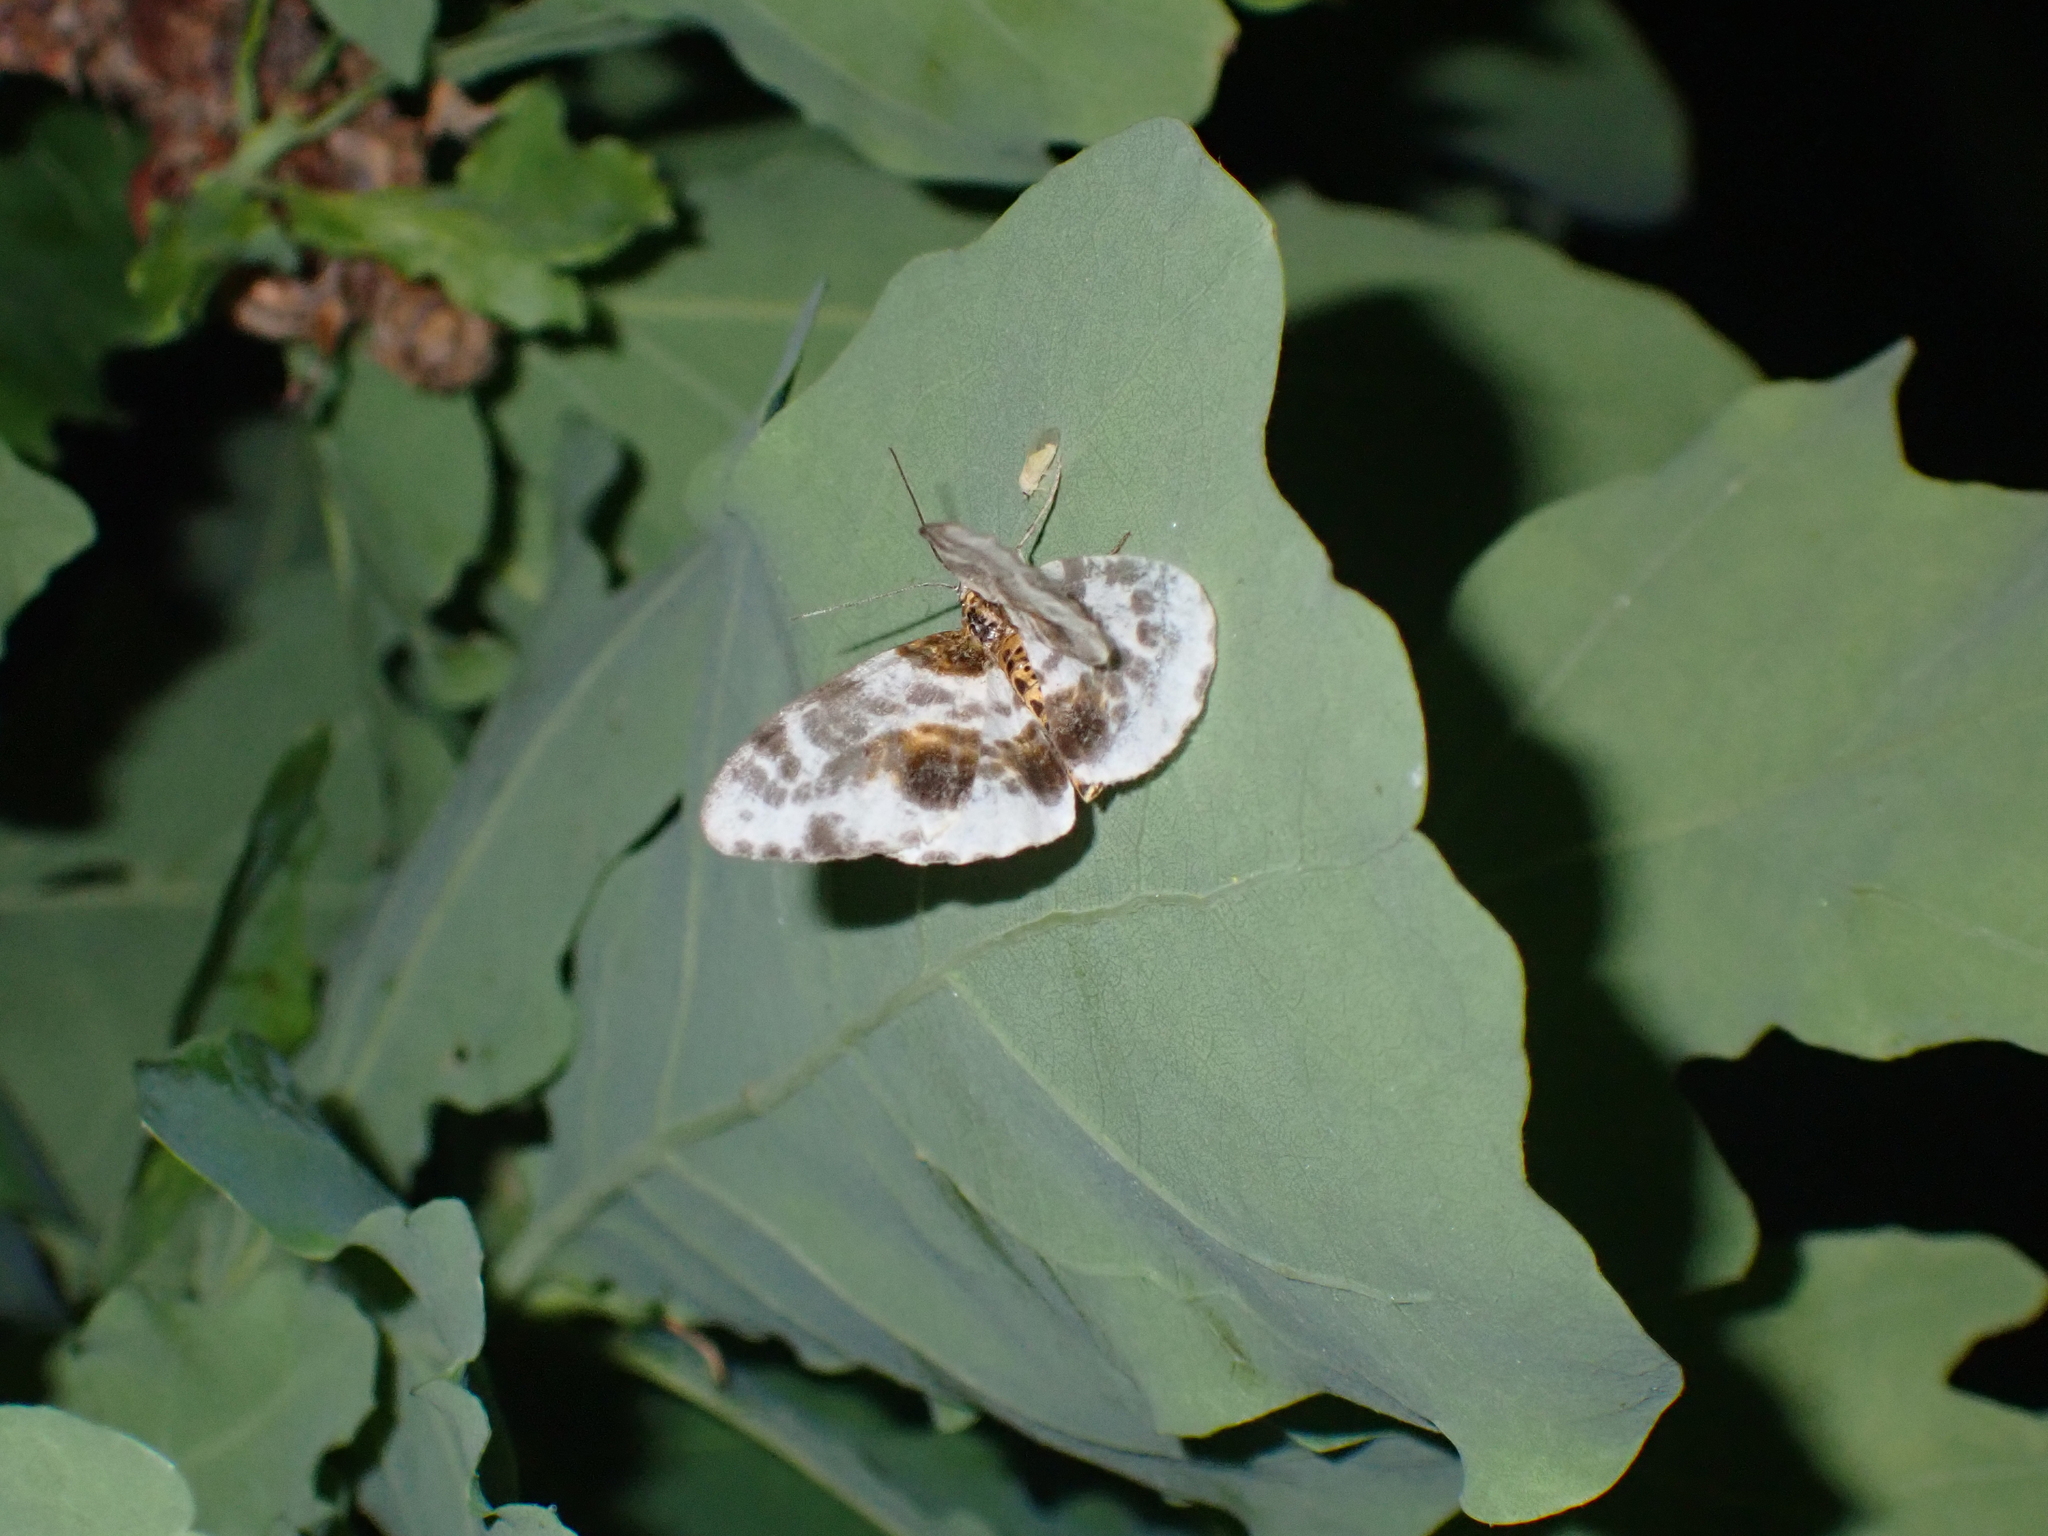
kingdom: Animalia
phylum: Arthropoda
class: Insecta
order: Lepidoptera
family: Geometridae
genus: Abraxas
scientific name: Abraxas sylvata
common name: Clouded magpie
